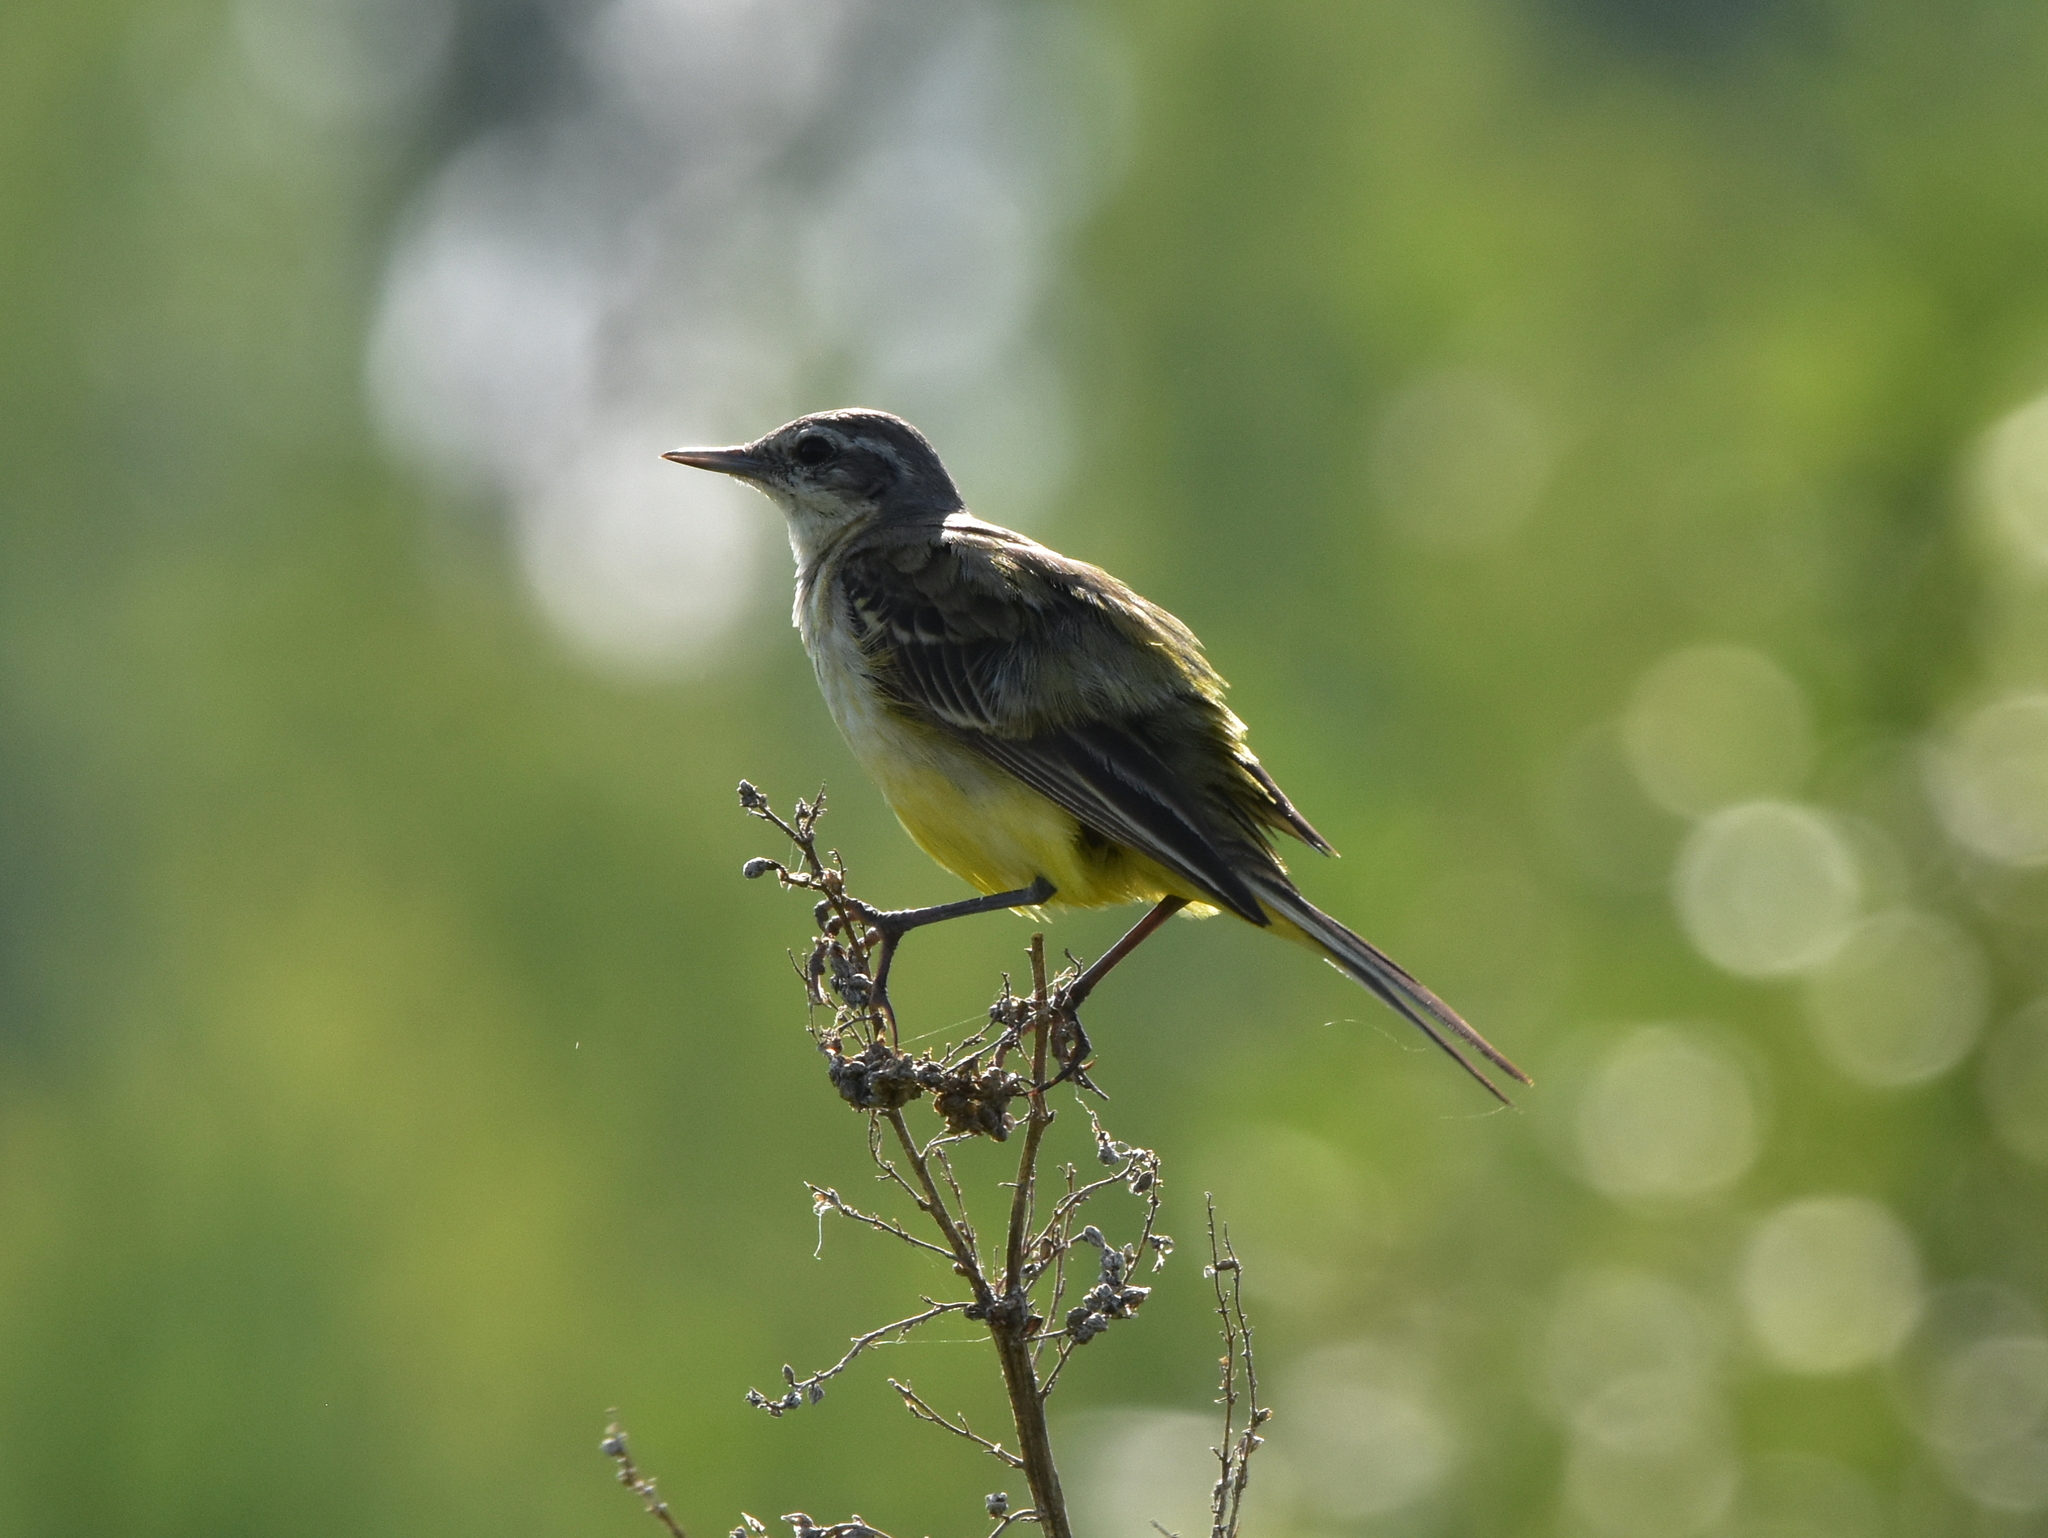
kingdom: Animalia
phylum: Chordata
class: Aves
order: Passeriformes
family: Motacillidae
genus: Motacilla
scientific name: Motacilla flava
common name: Western yellow wagtail
